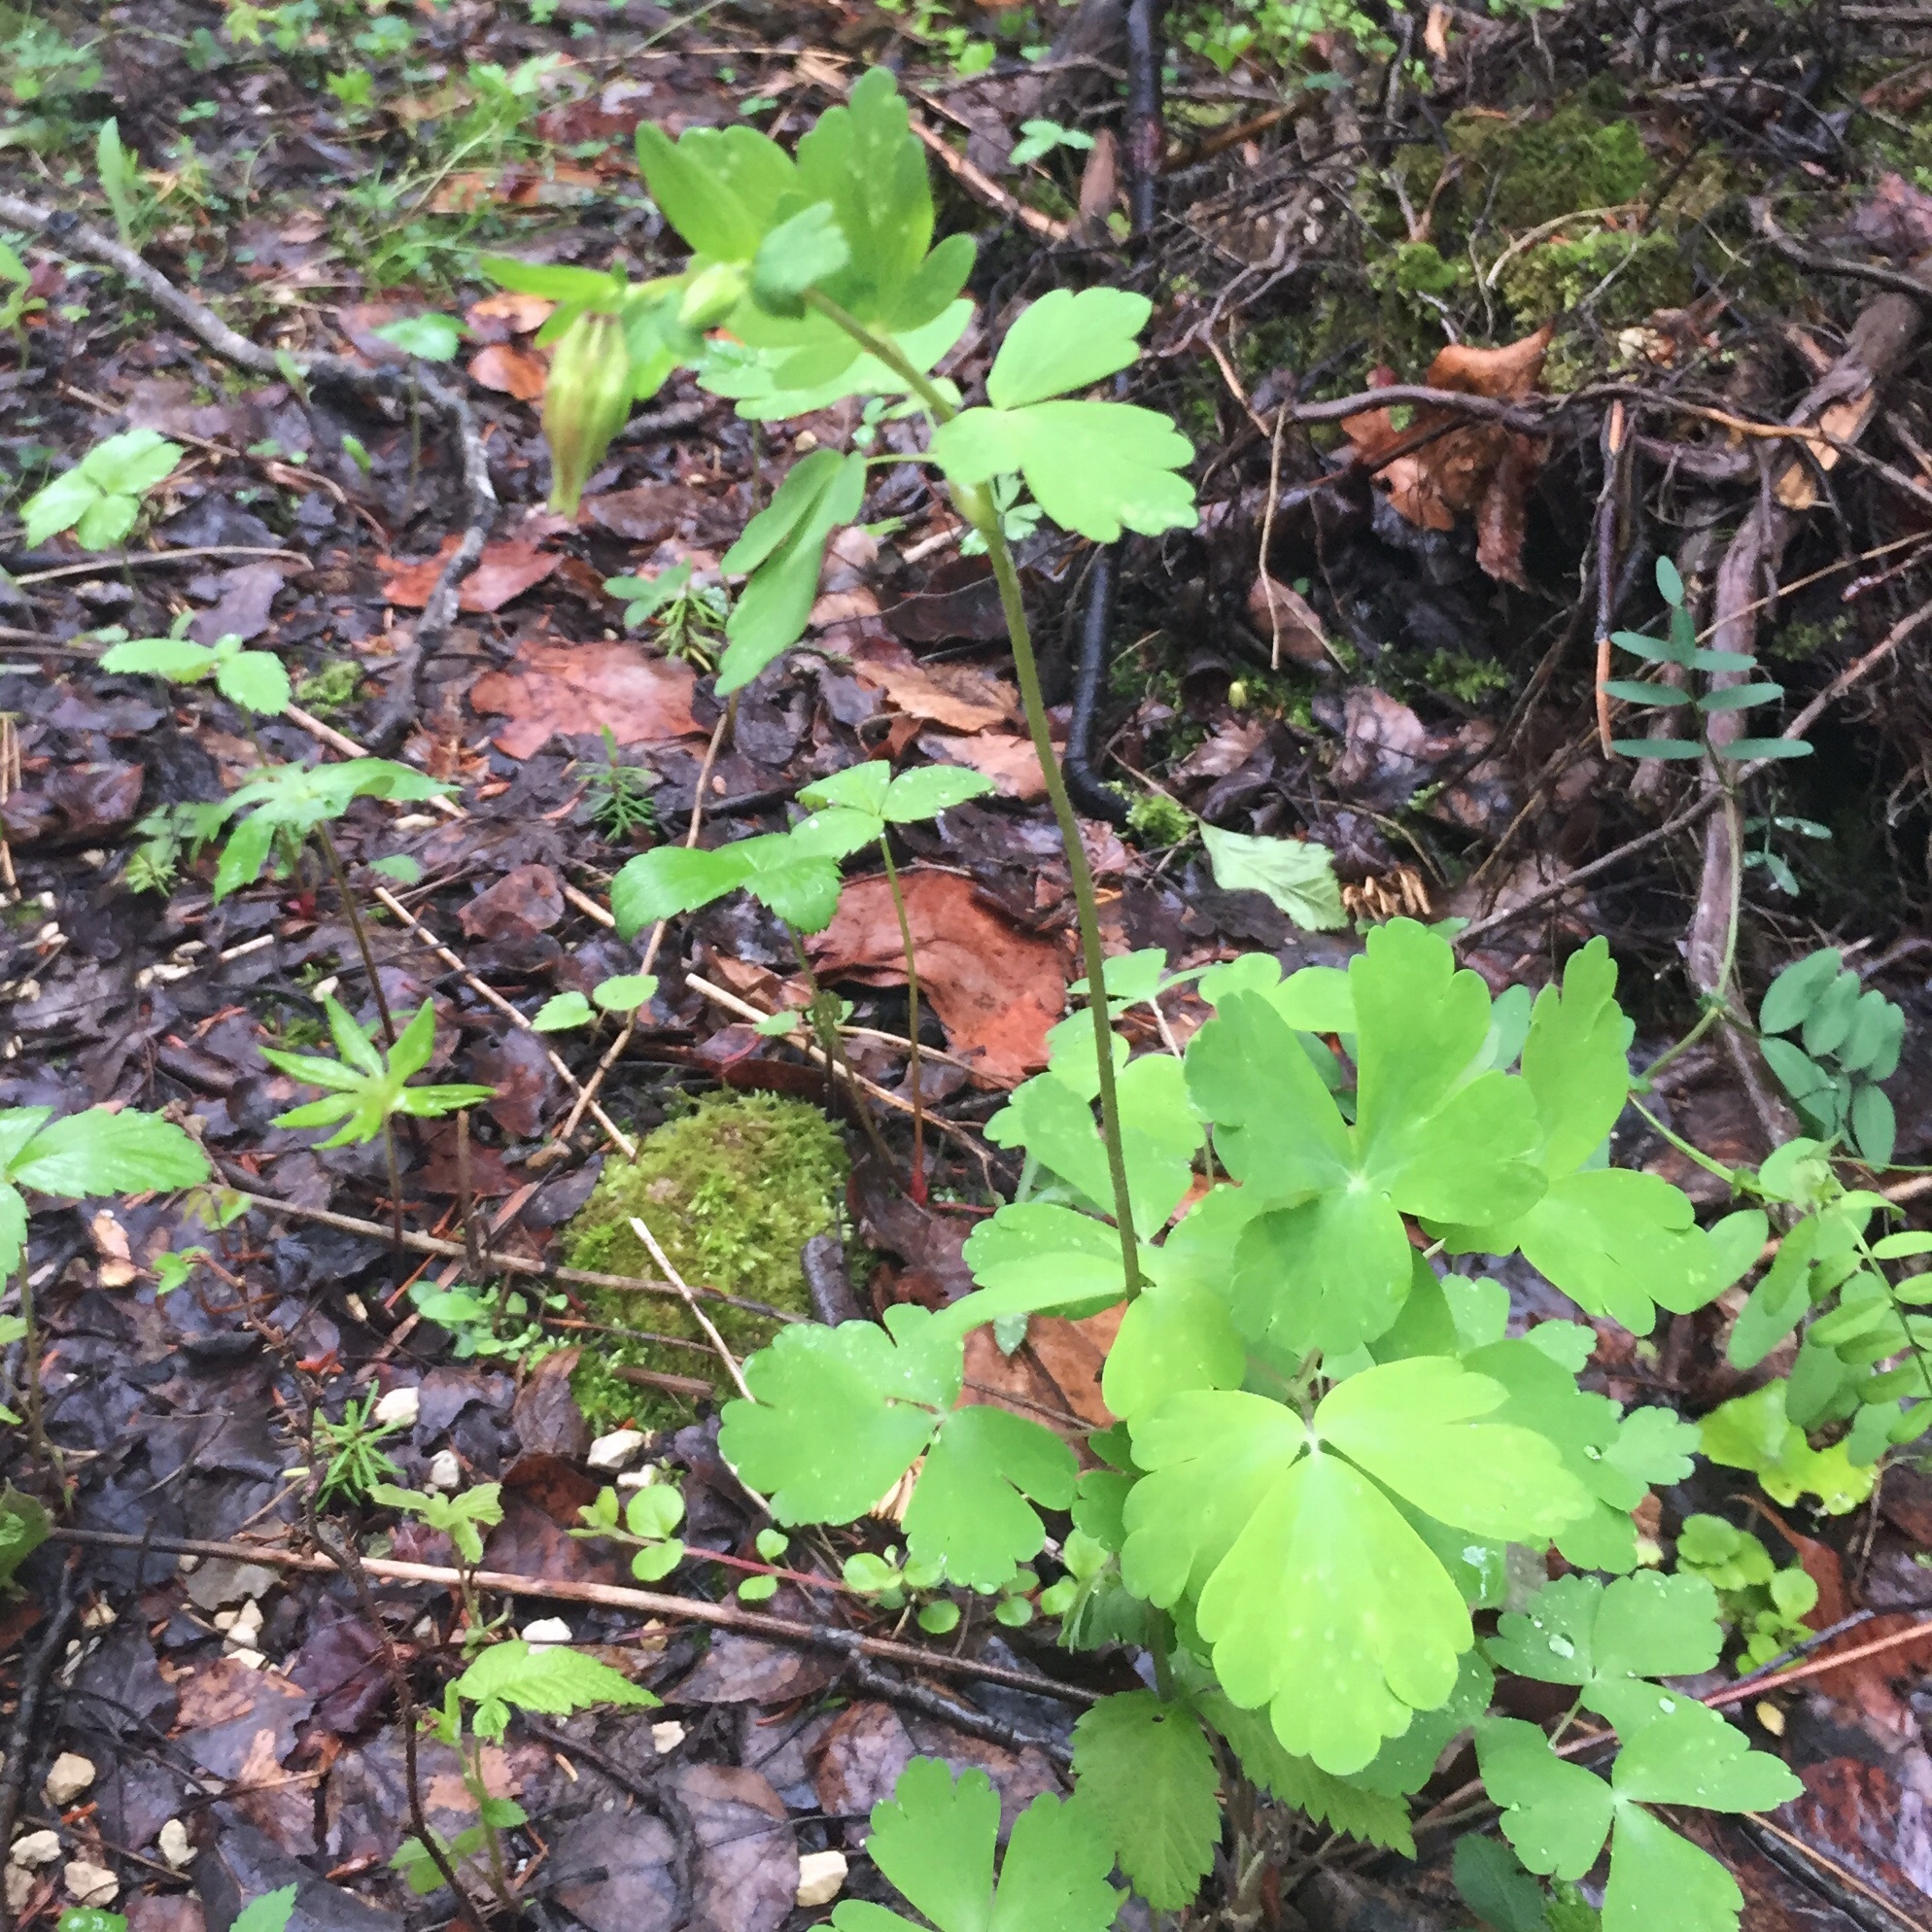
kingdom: Plantae
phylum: Tracheophyta
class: Magnoliopsida
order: Ranunculales
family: Ranunculaceae
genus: Aquilegia
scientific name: Aquilegia canadensis
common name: American columbine
